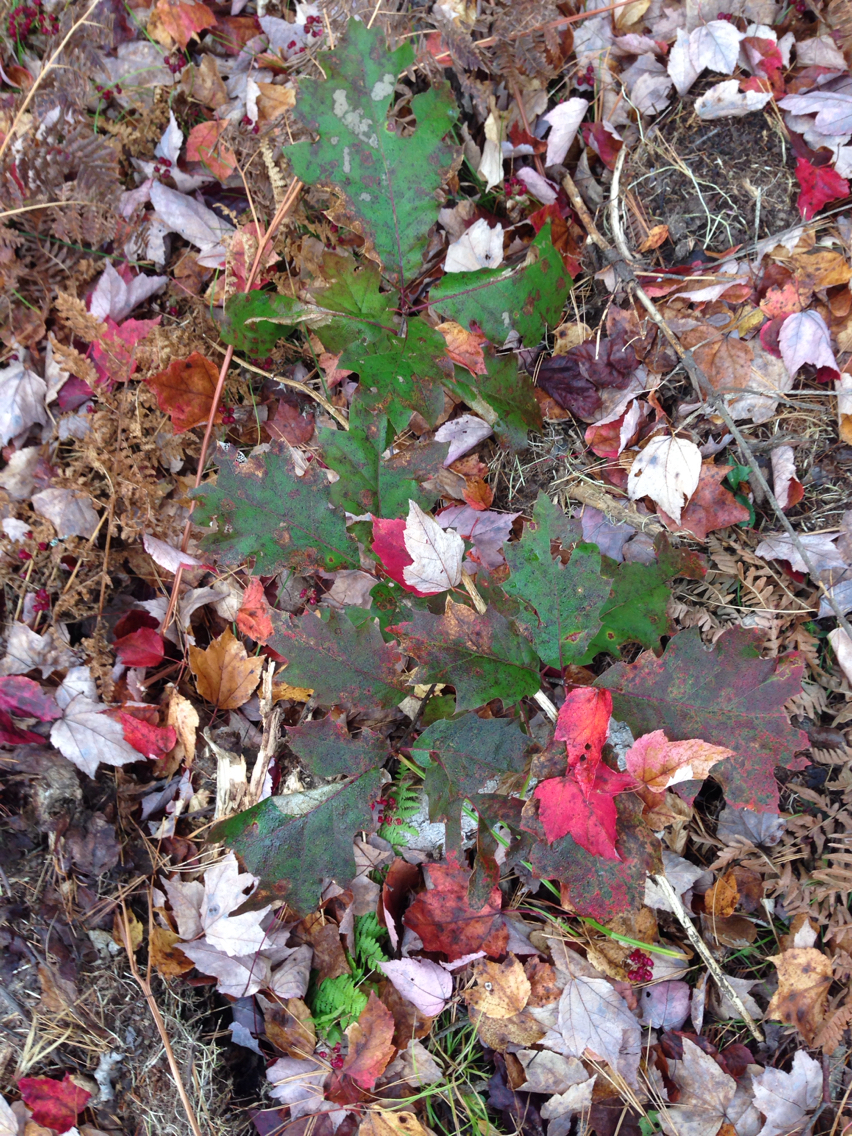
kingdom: Plantae
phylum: Tracheophyta
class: Magnoliopsida
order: Fagales
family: Fagaceae
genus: Quercus
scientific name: Quercus rubra
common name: Red oak
